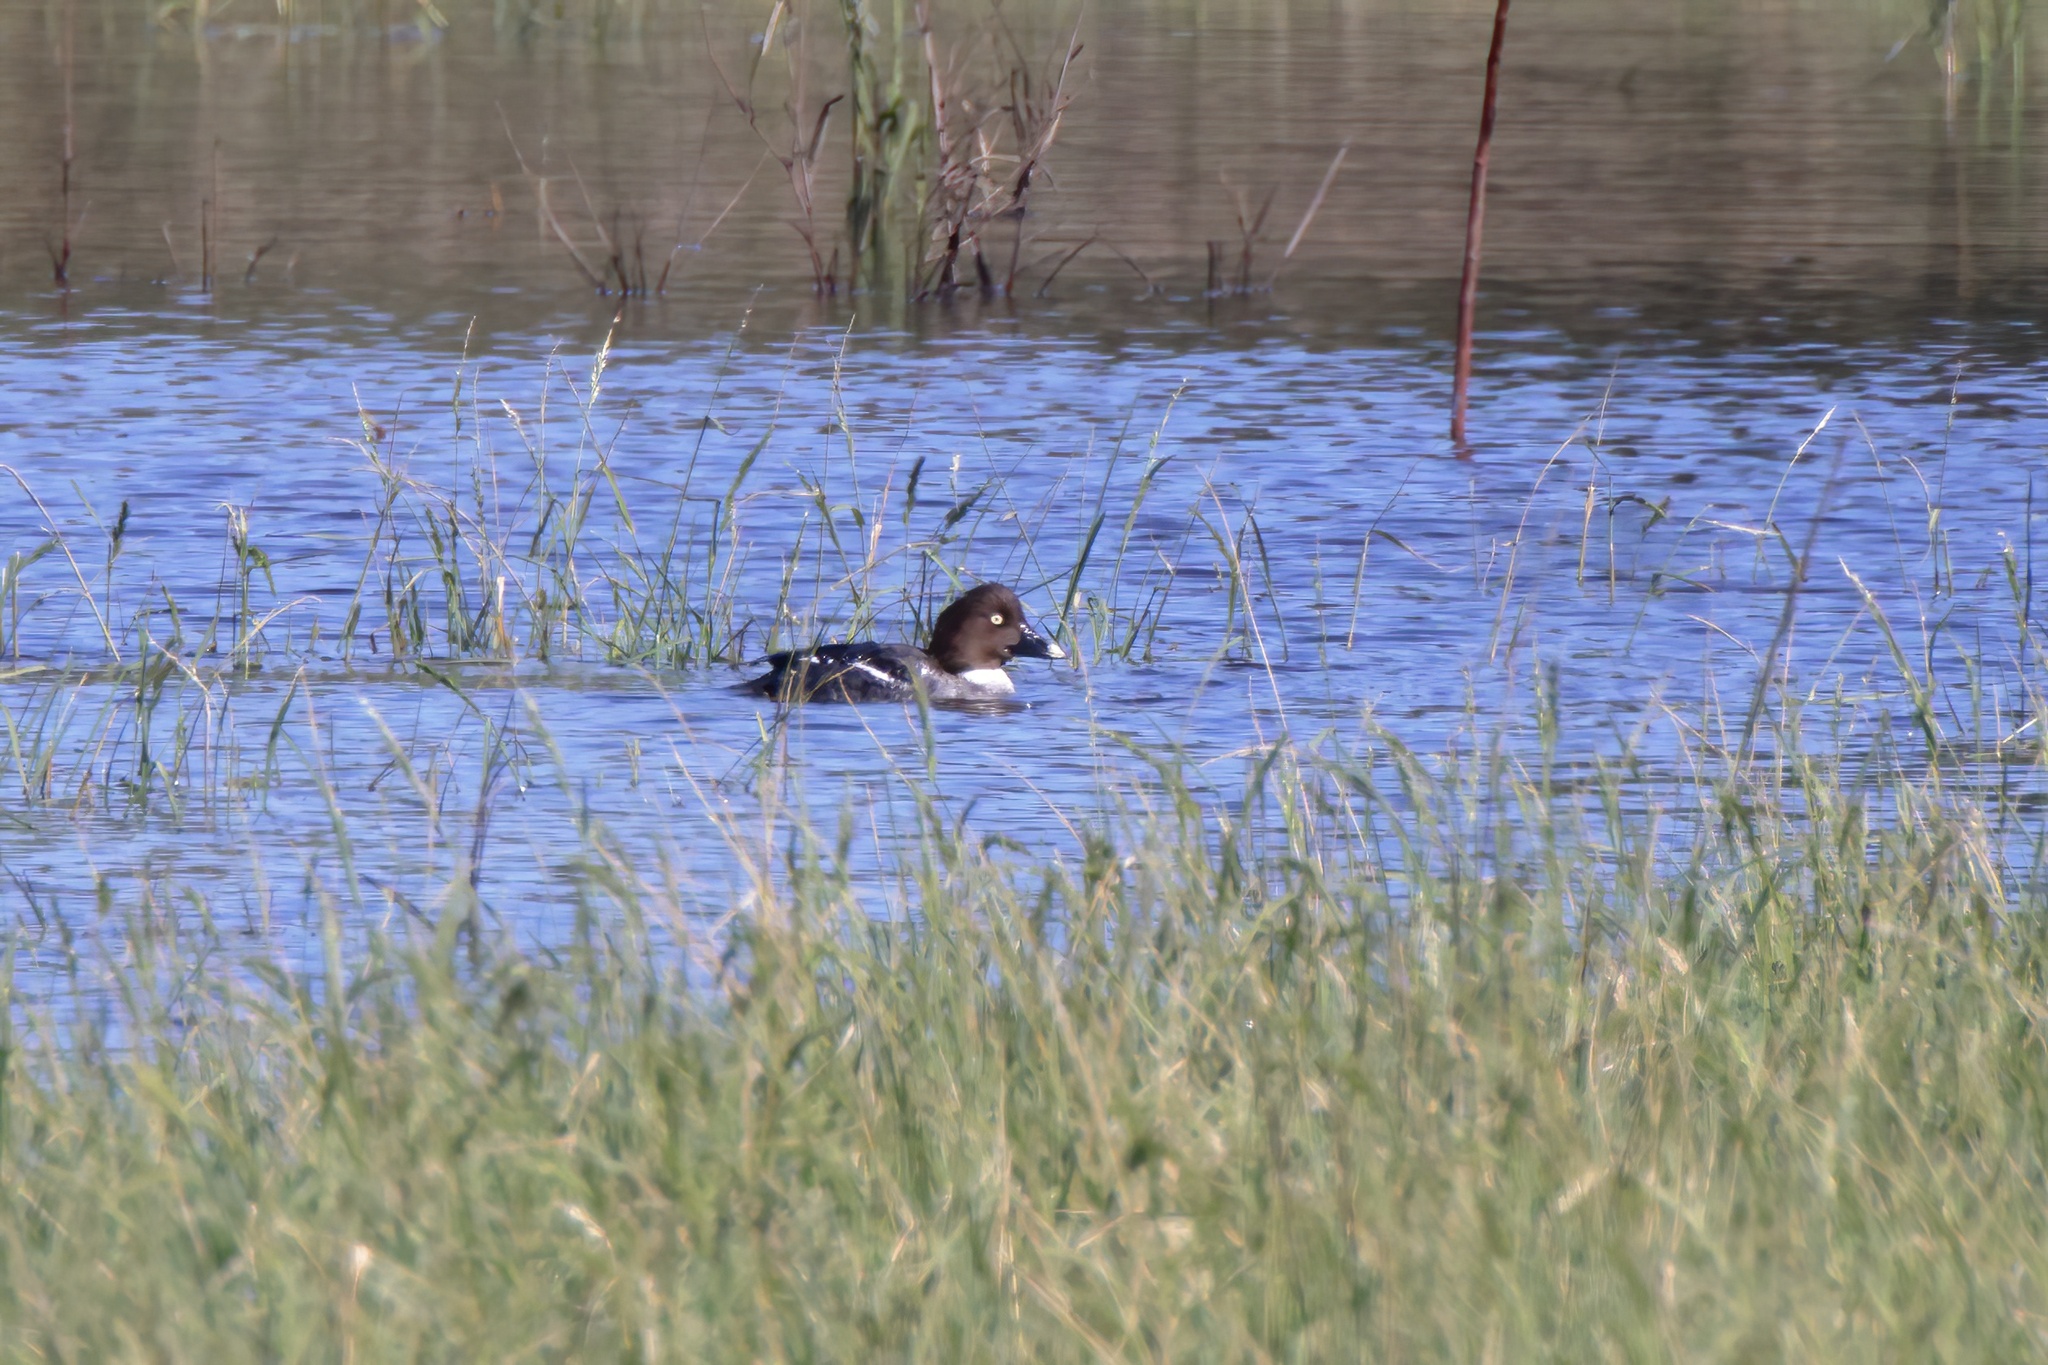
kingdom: Animalia
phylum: Chordata
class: Aves
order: Anseriformes
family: Anatidae
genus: Bucephala
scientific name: Bucephala clangula
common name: Common goldeneye
